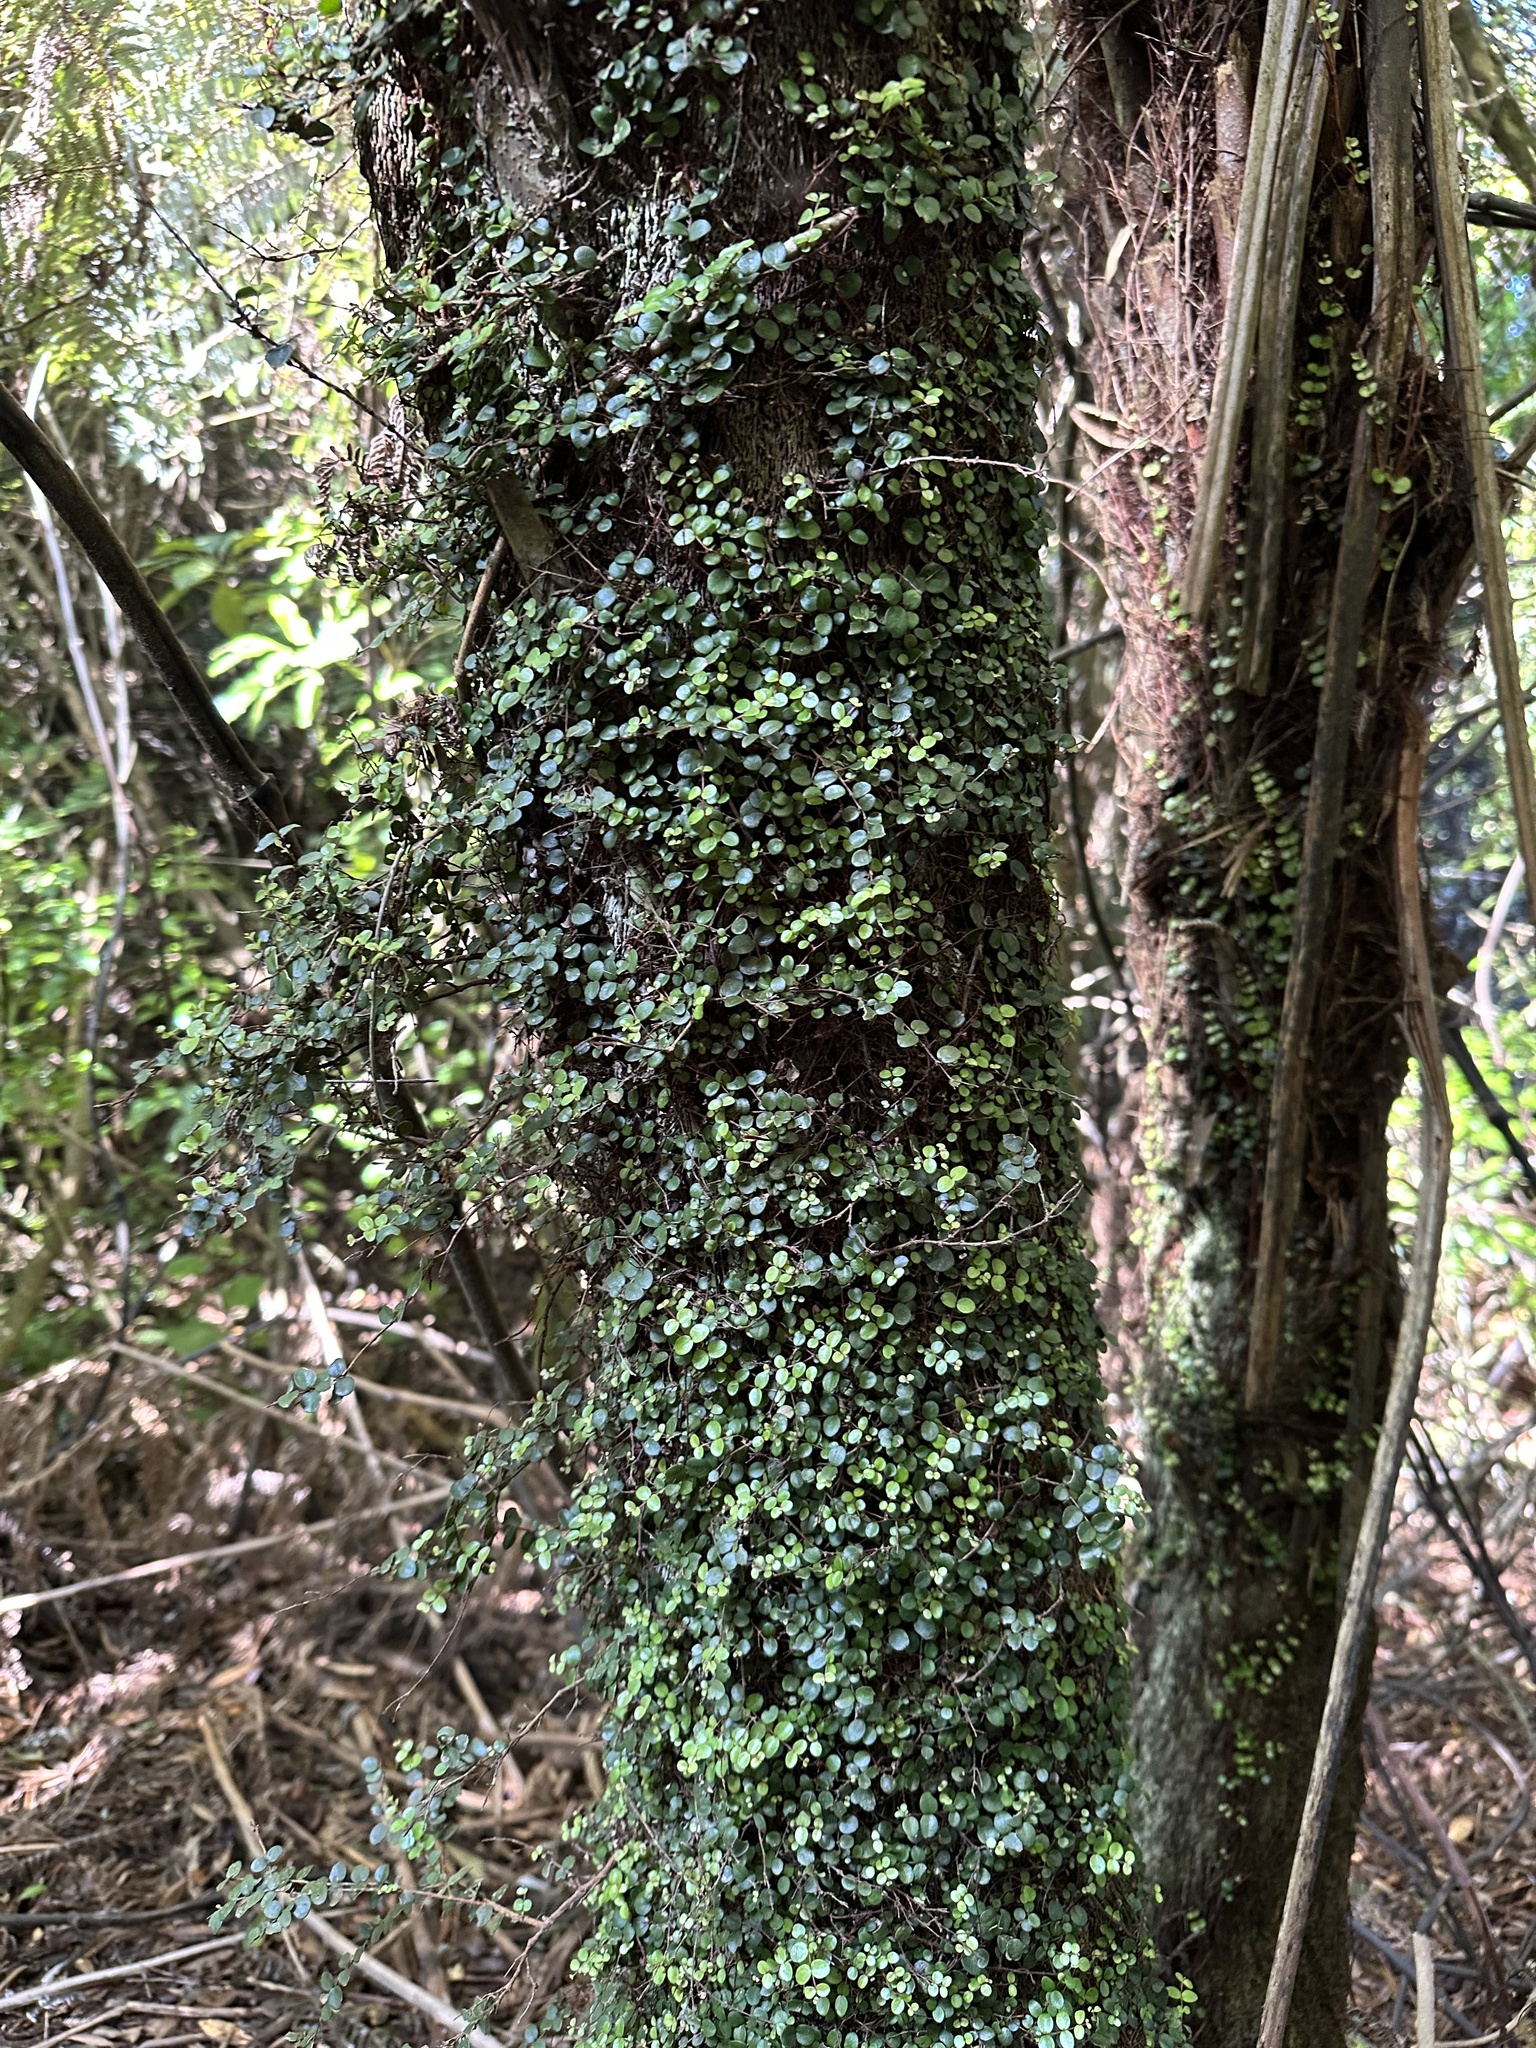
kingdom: Plantae
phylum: Tracheophyta
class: Magnoliopsida
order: Myrtales
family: Myrtaceae
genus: Metrosideros
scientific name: Metrosideros perforata
